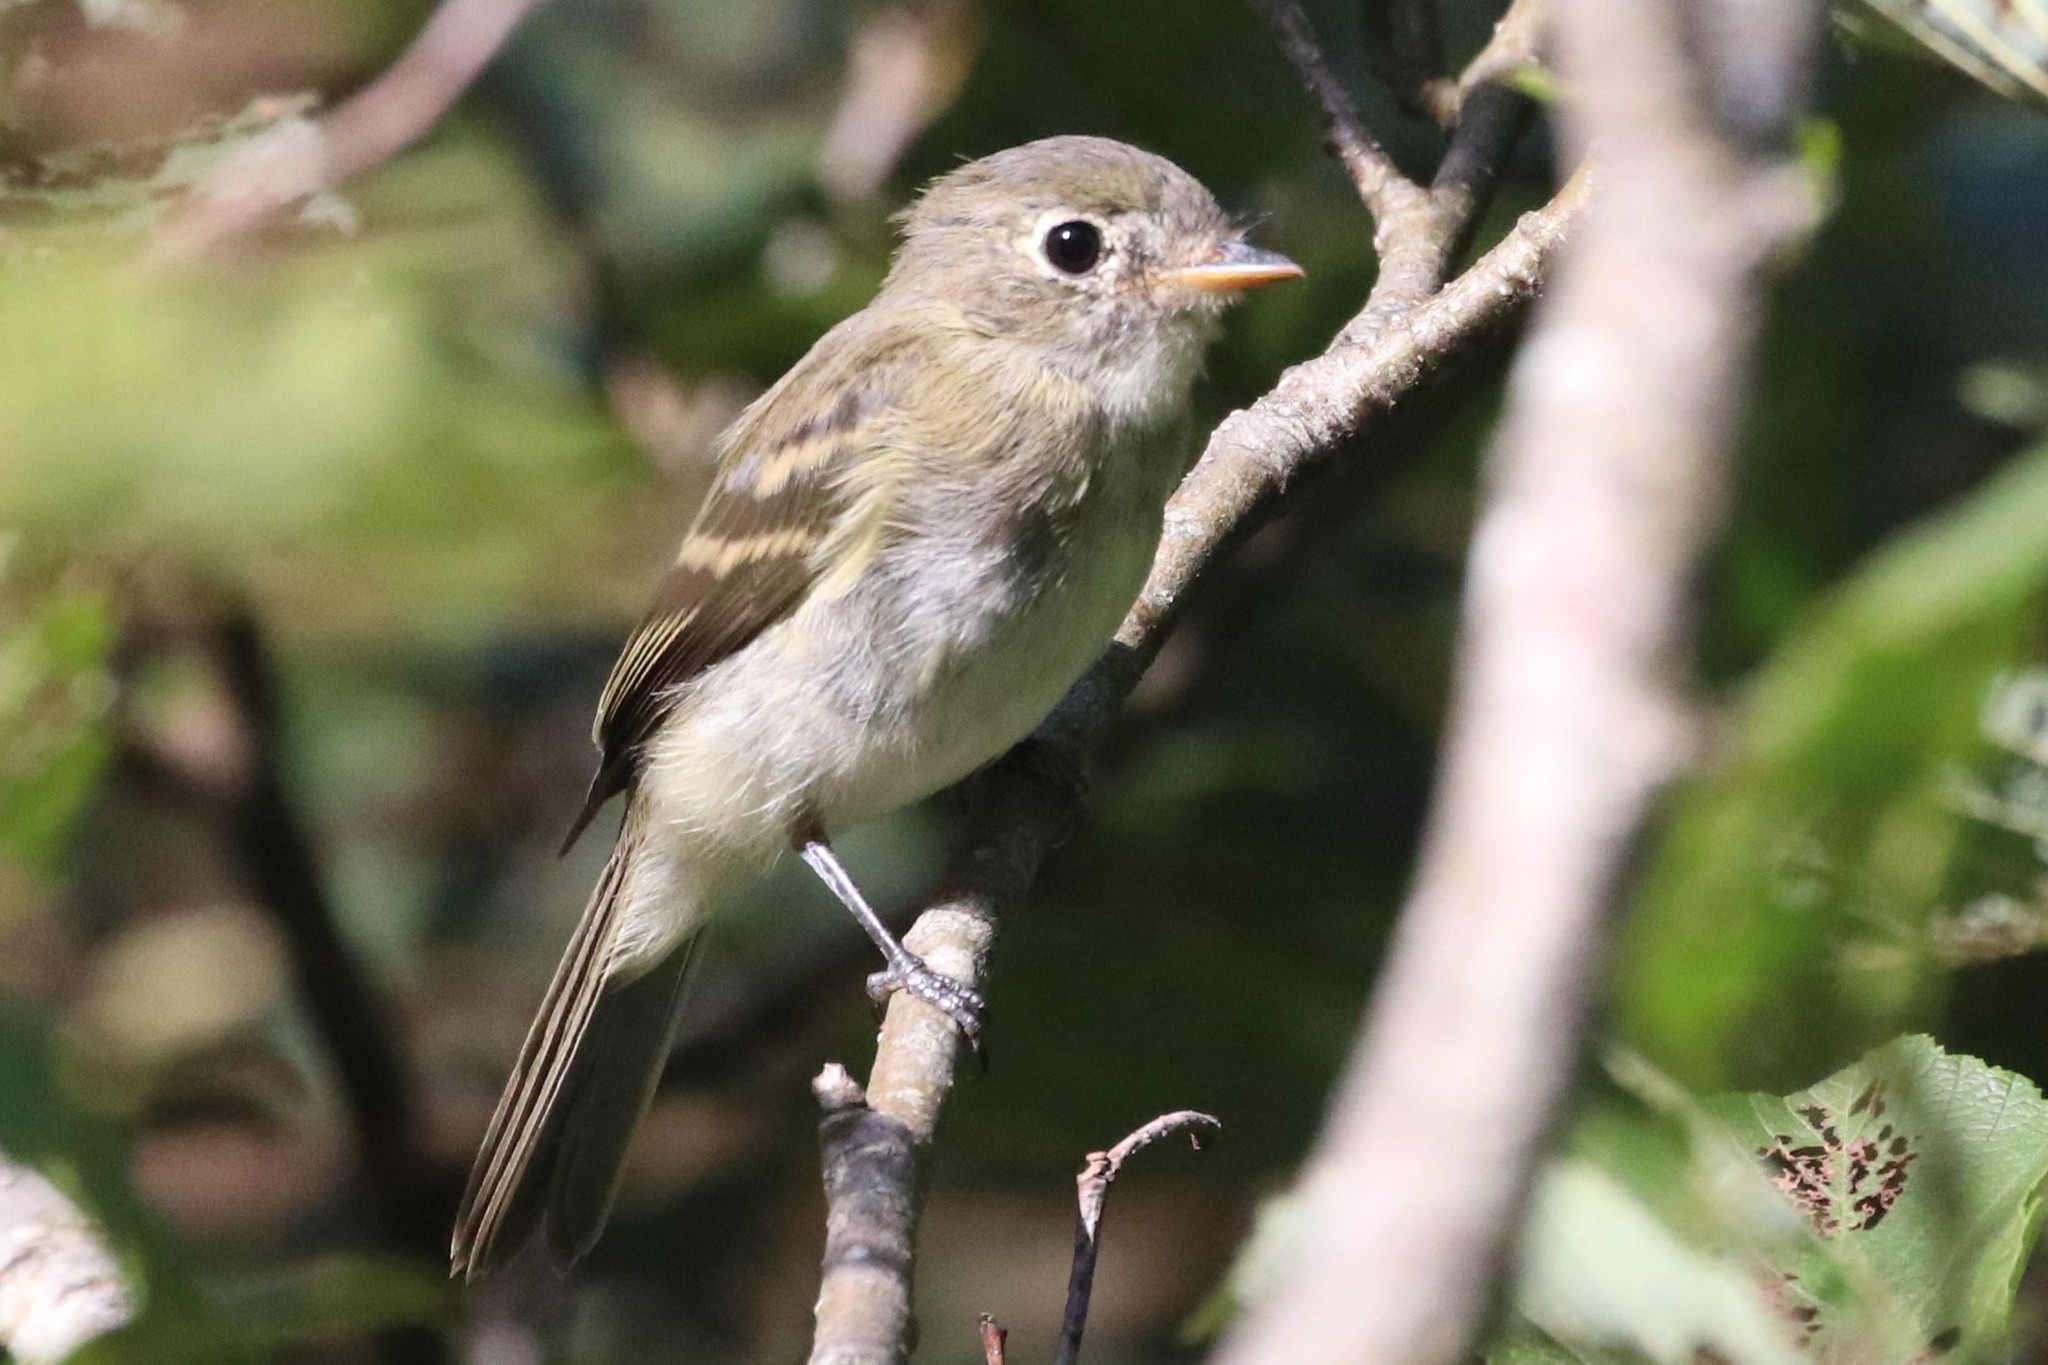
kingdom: Animalia
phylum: Chordata
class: Aves
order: Passeriformes
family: Tyrannidae
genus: Empidonax
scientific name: Empidonax minimus
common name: Least flycatcher
